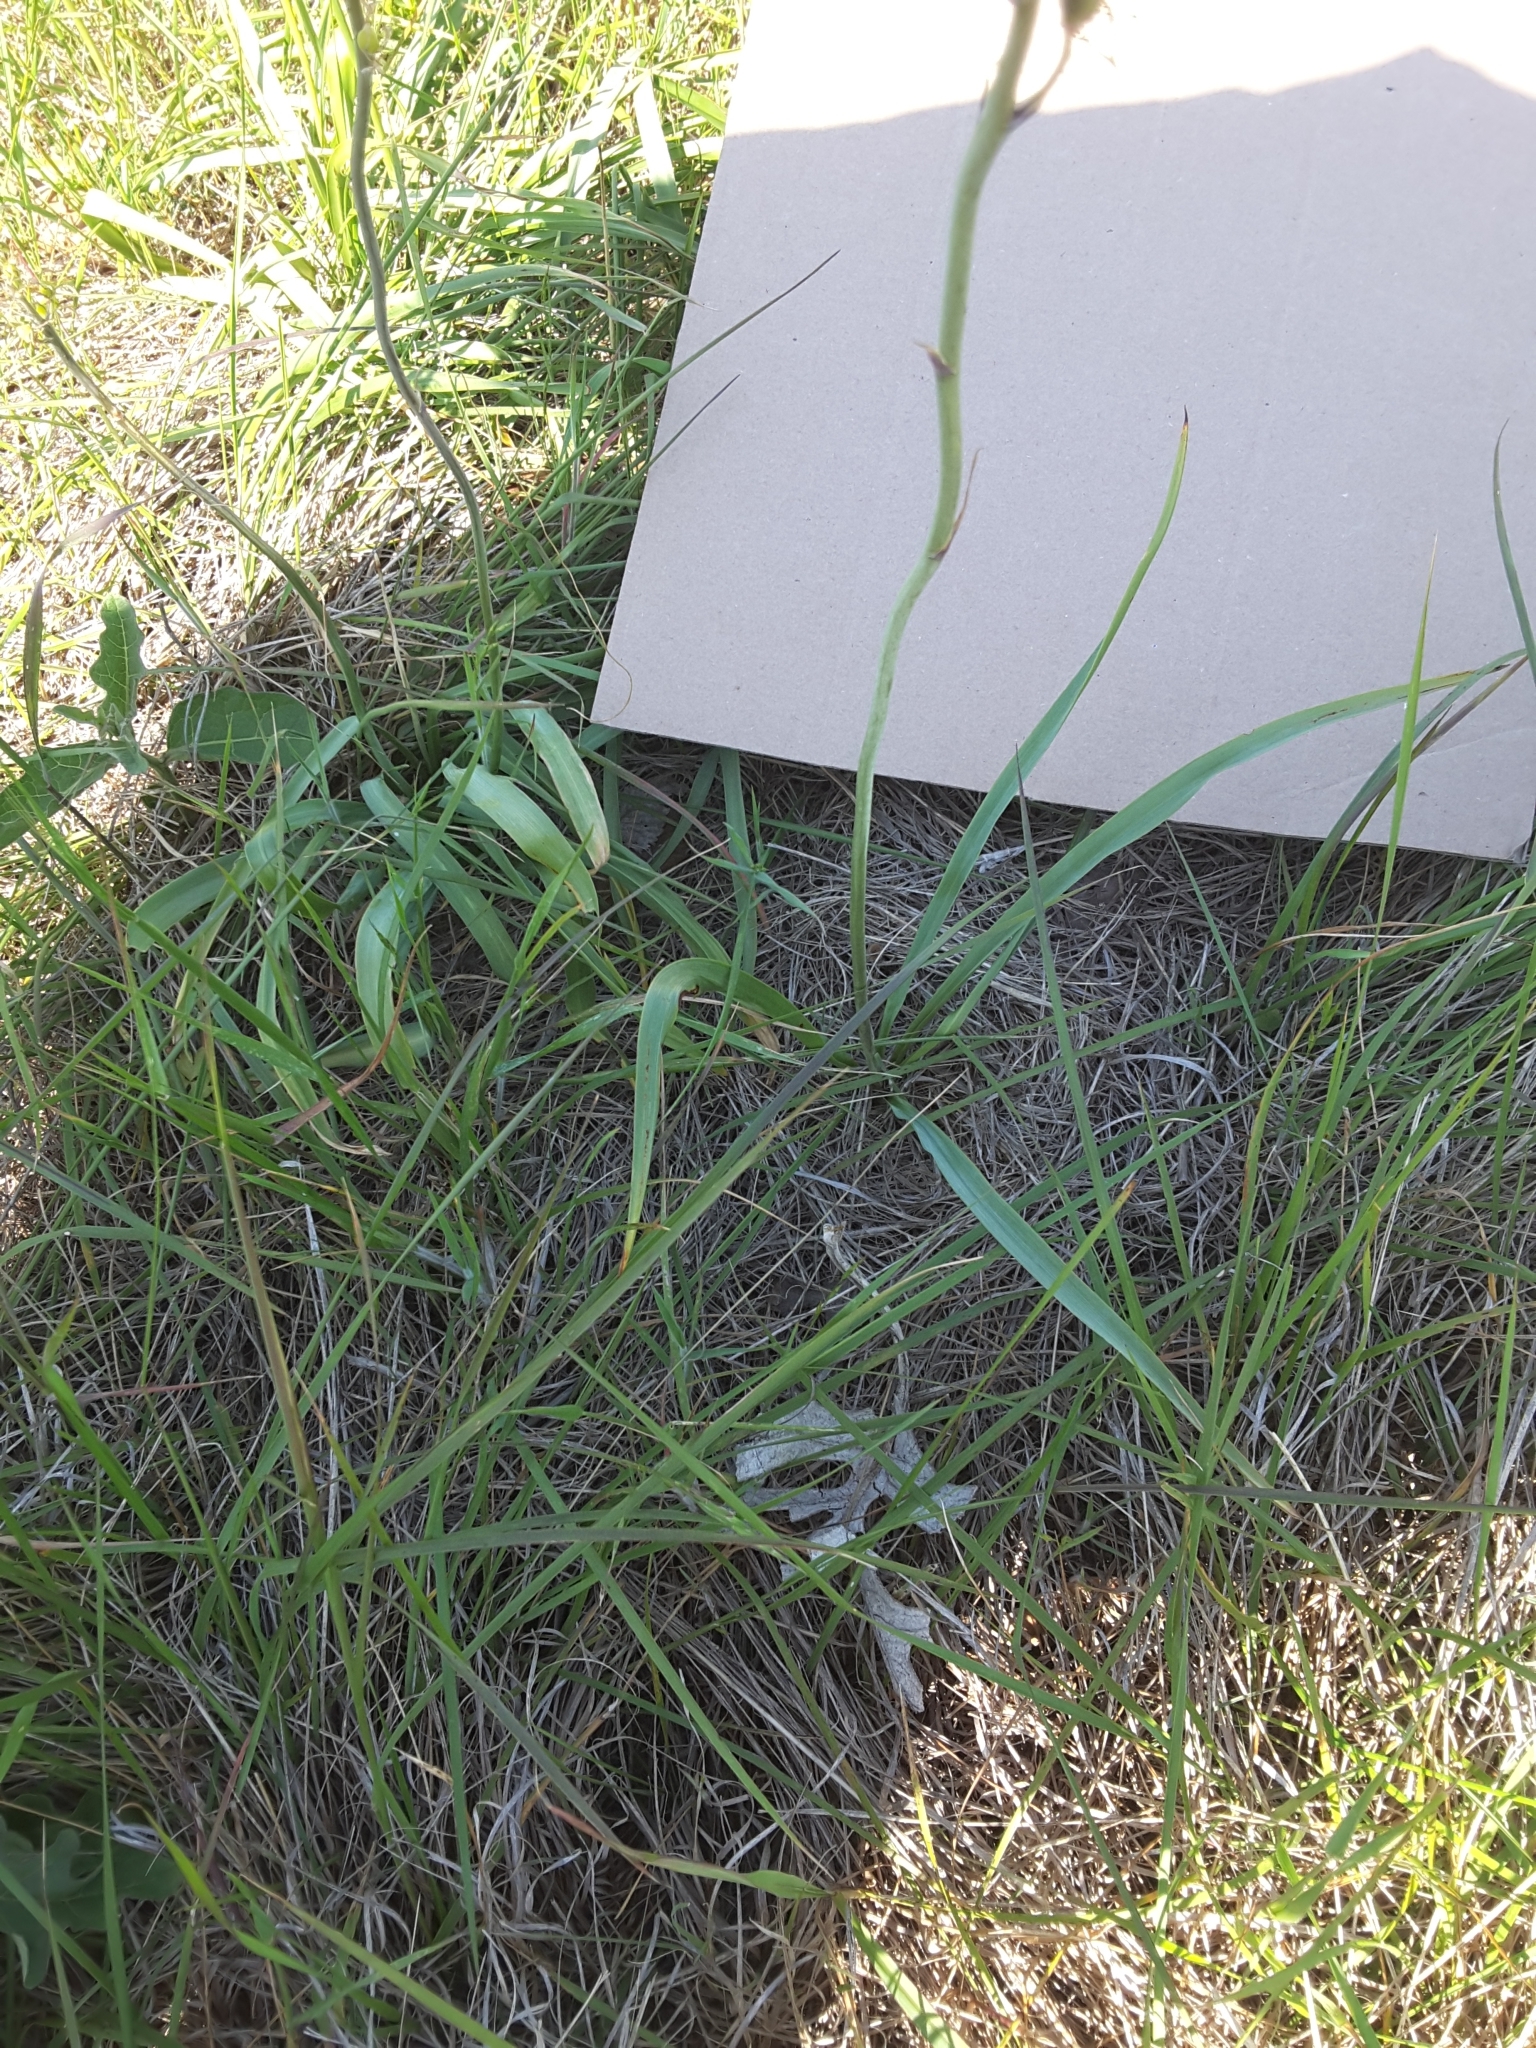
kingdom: Plantae
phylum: Tracheophyta
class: Liliopsida
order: Asparagales
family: Asparagaceae
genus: Camassia
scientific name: Camassia scilloides
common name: Wild hyacinth
